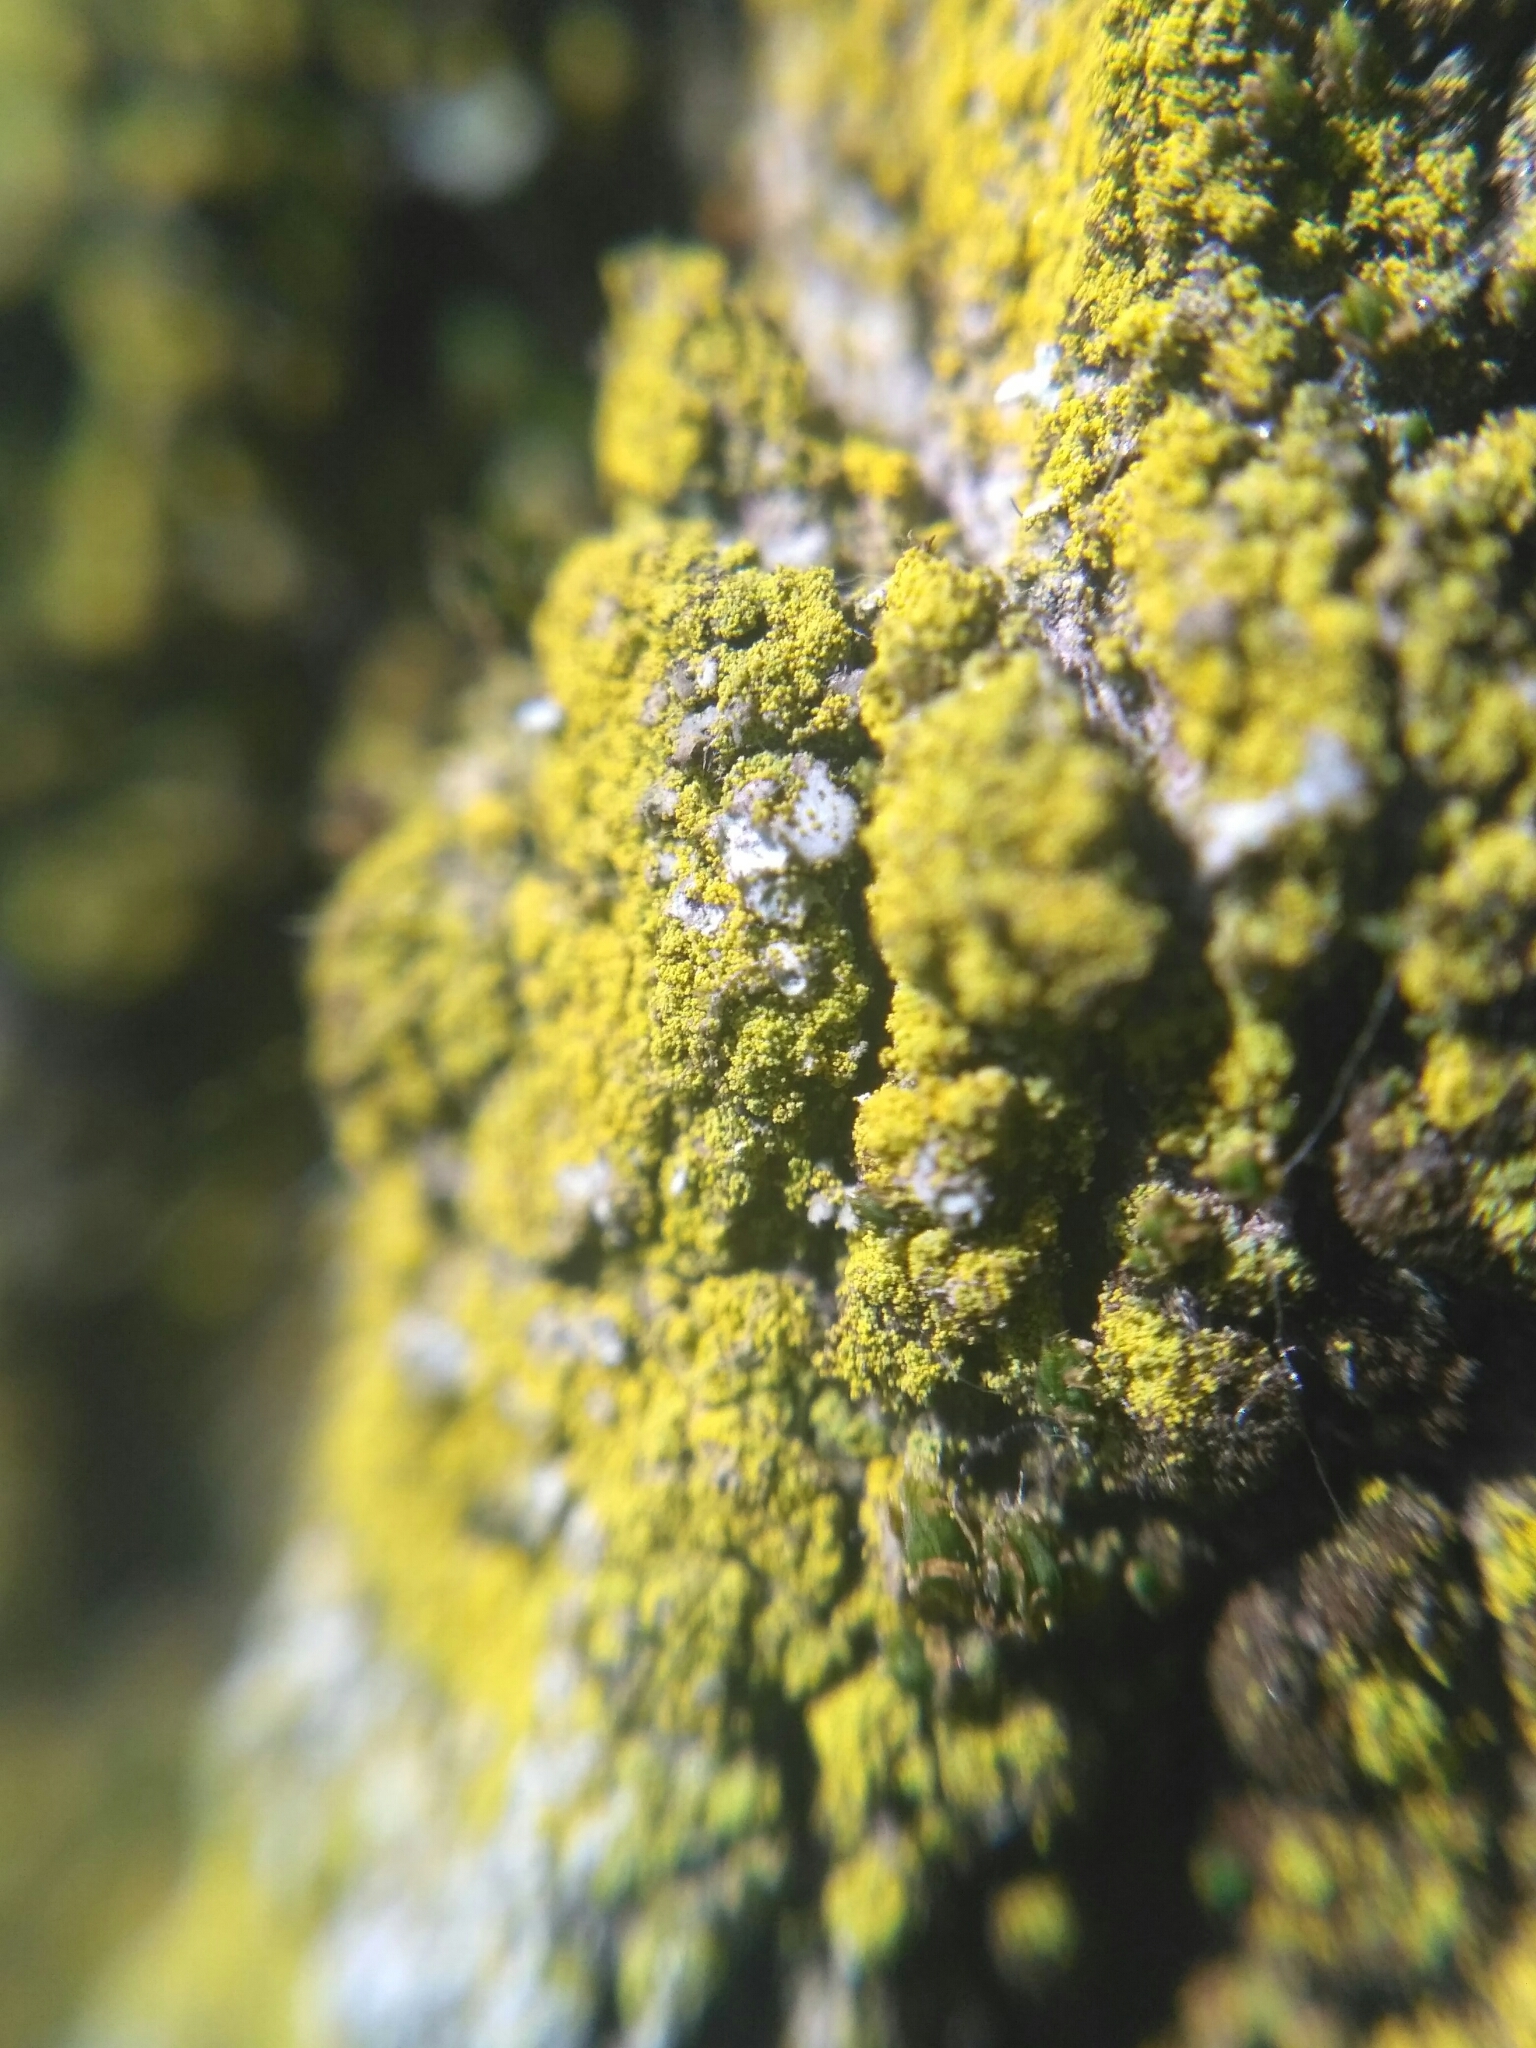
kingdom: Fungi
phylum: Ascomycota
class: Candelariomycetes
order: Candelariales
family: Candelariaceae
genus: Candelariella
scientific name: Candelariella xanthostigma
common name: Granular goldspeck lichen
